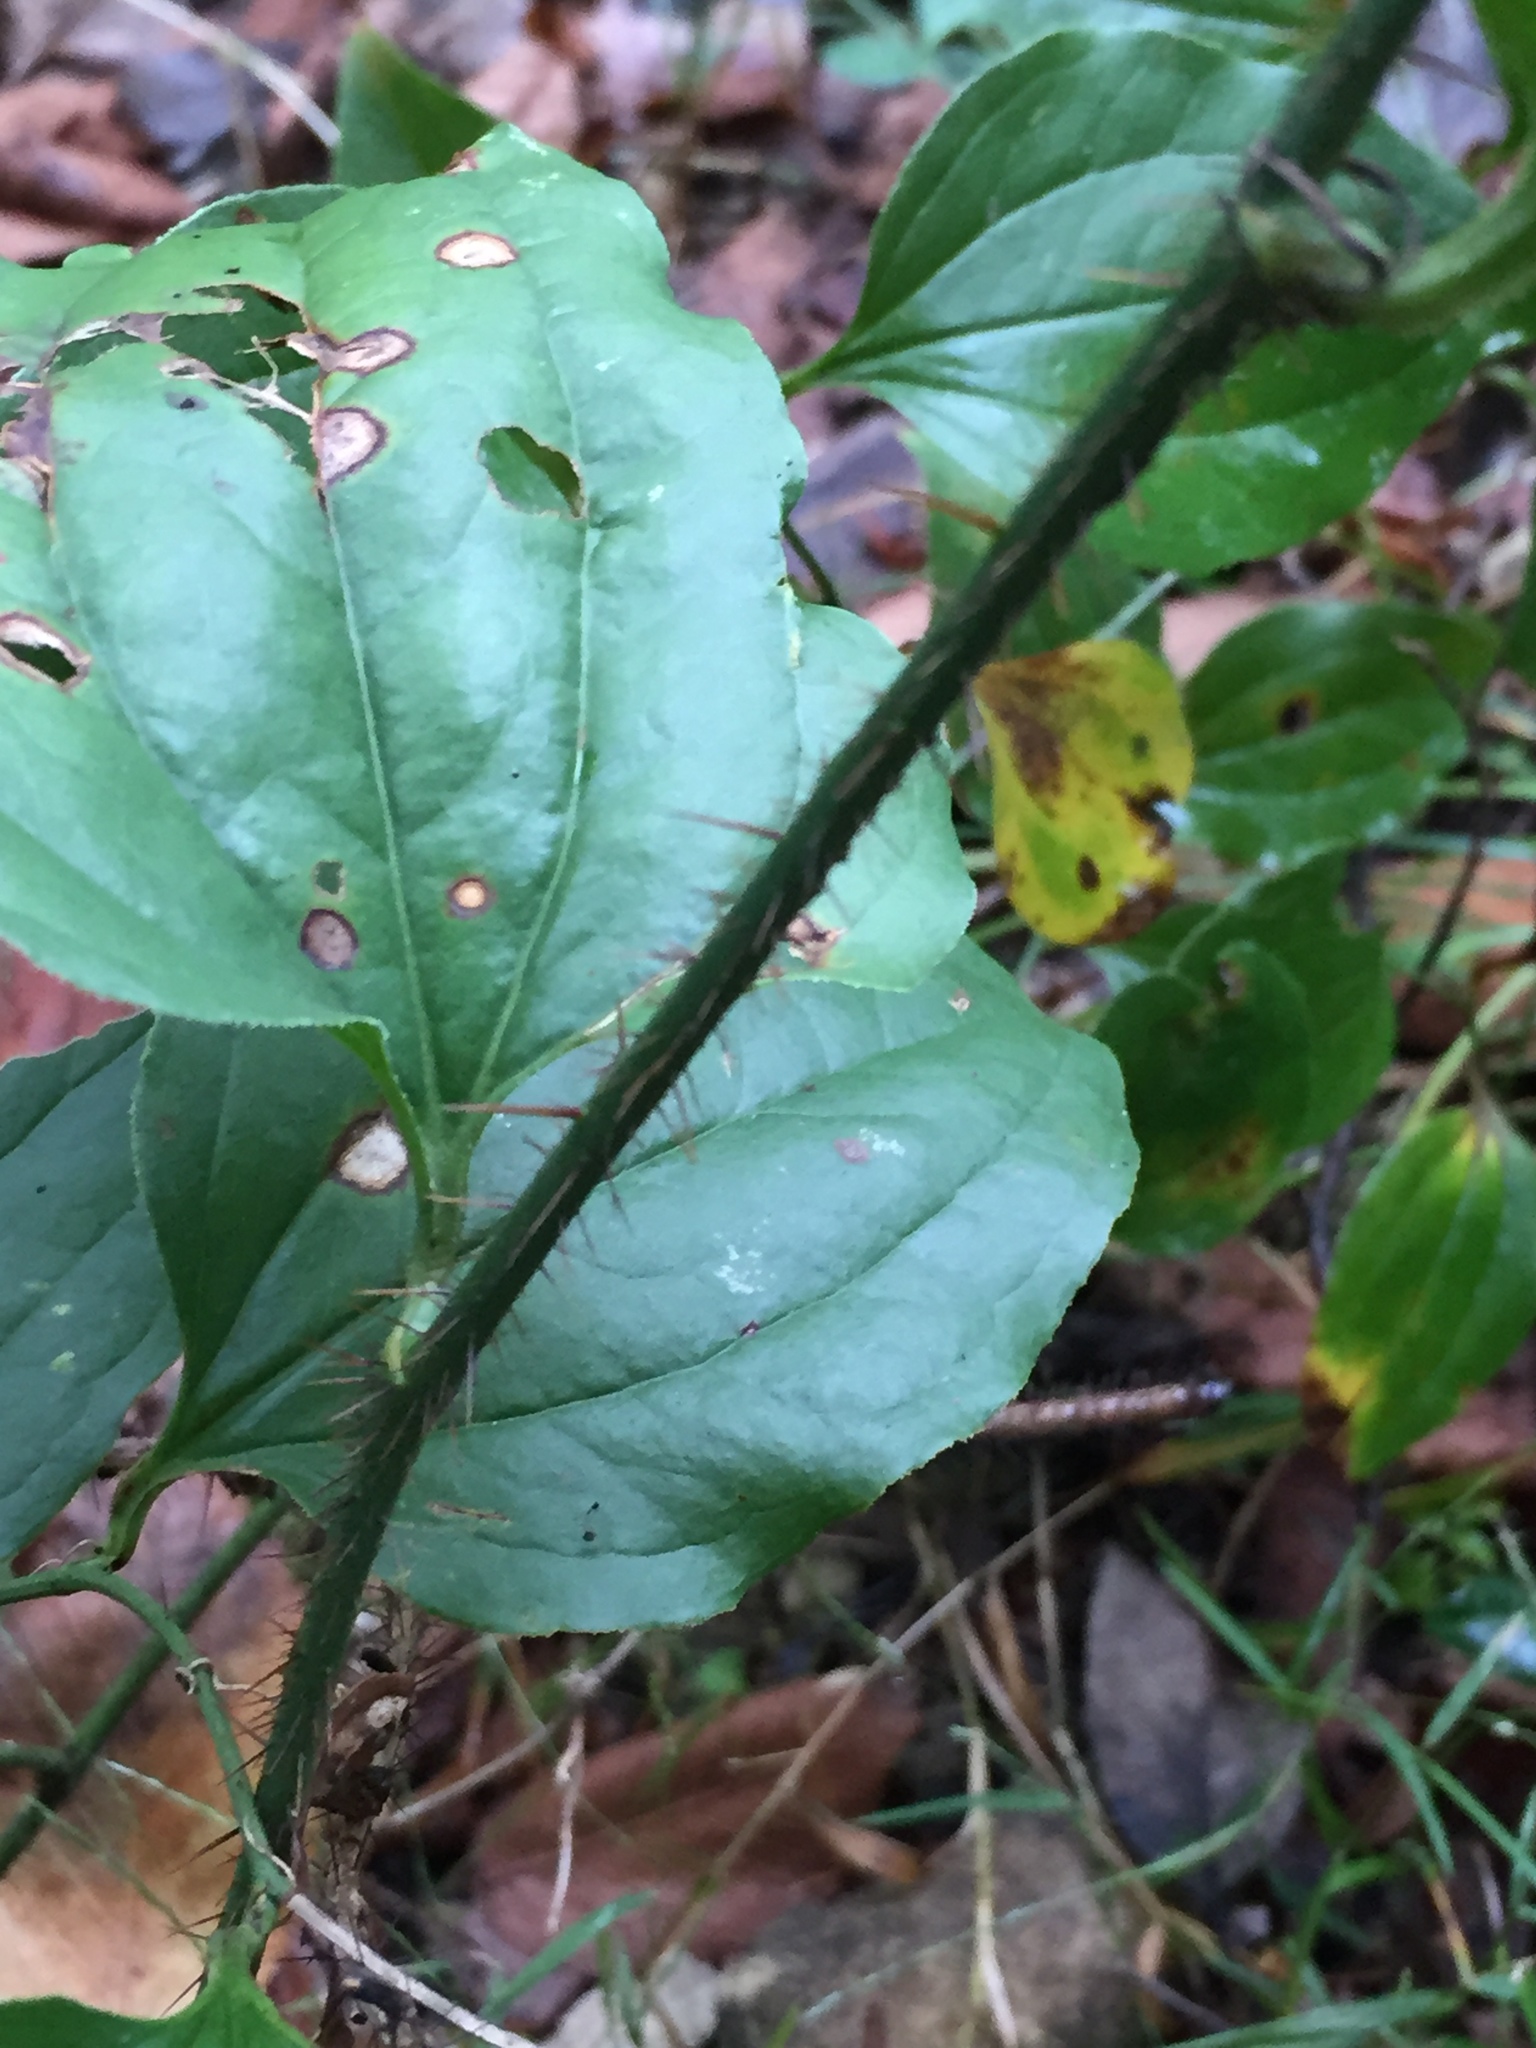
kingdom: Plantae
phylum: Tracheophyta
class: Liliopsida
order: Liliales
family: Smilacaceae
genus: Smilax
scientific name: Smilax tamnoides
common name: Hellfetter
